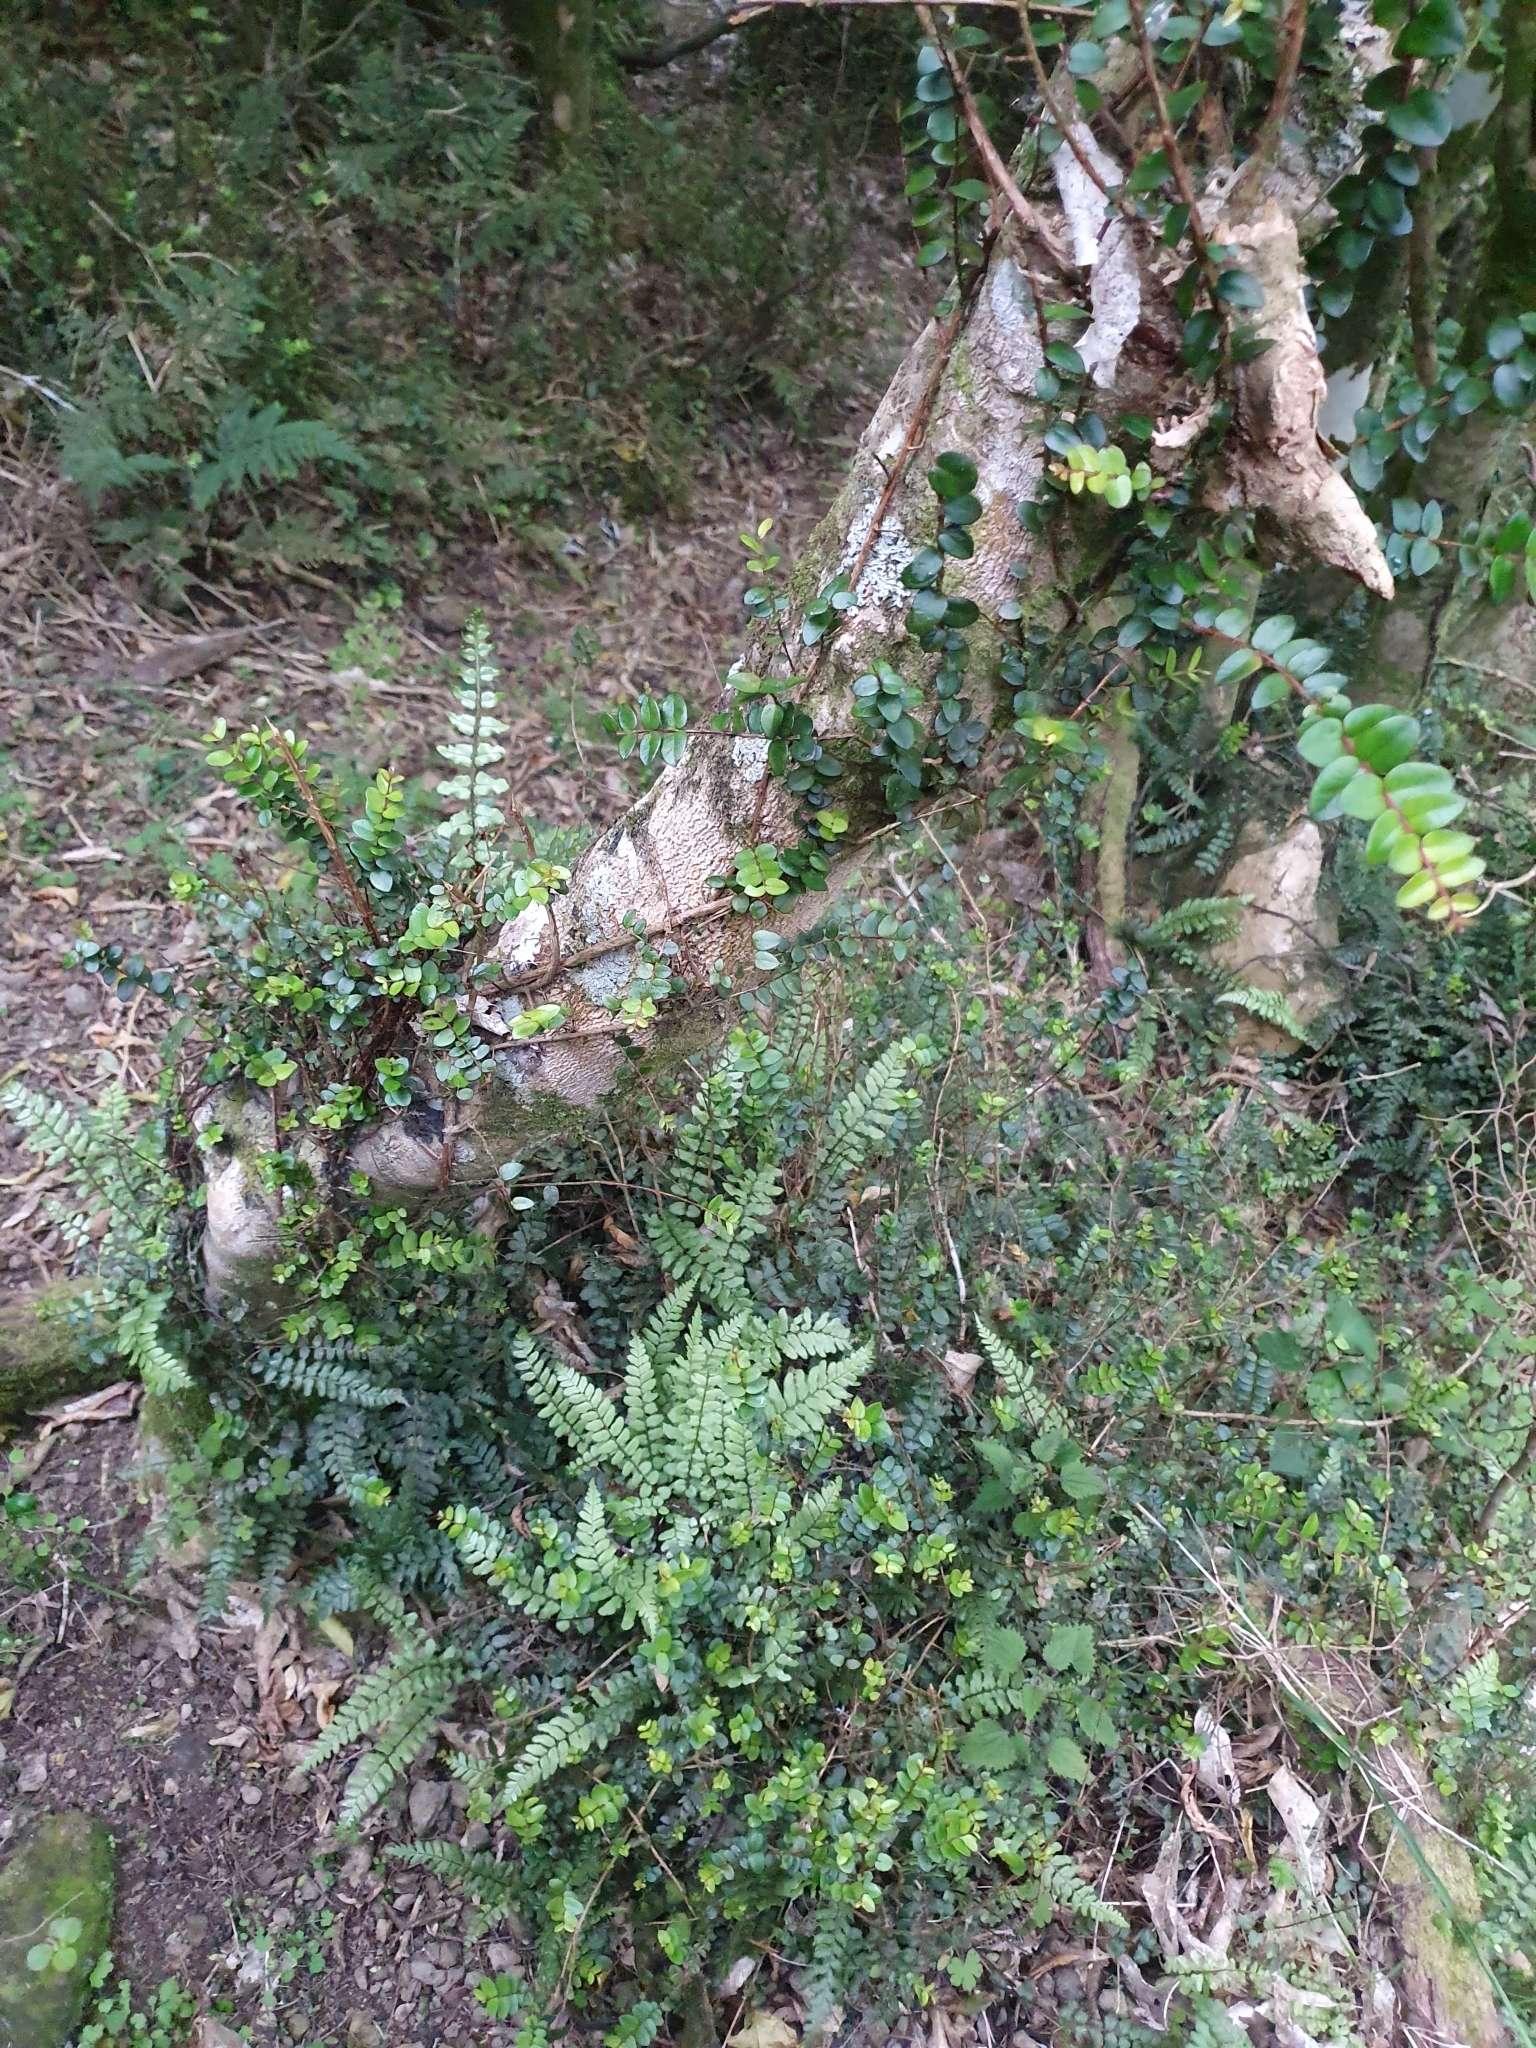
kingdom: Plantae
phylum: Tracheophyta
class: Magnoliopsida
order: Myrtales
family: Myrtaceae
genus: Metrosideros
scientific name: Metrosideros diffusa
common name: Small ratavine
